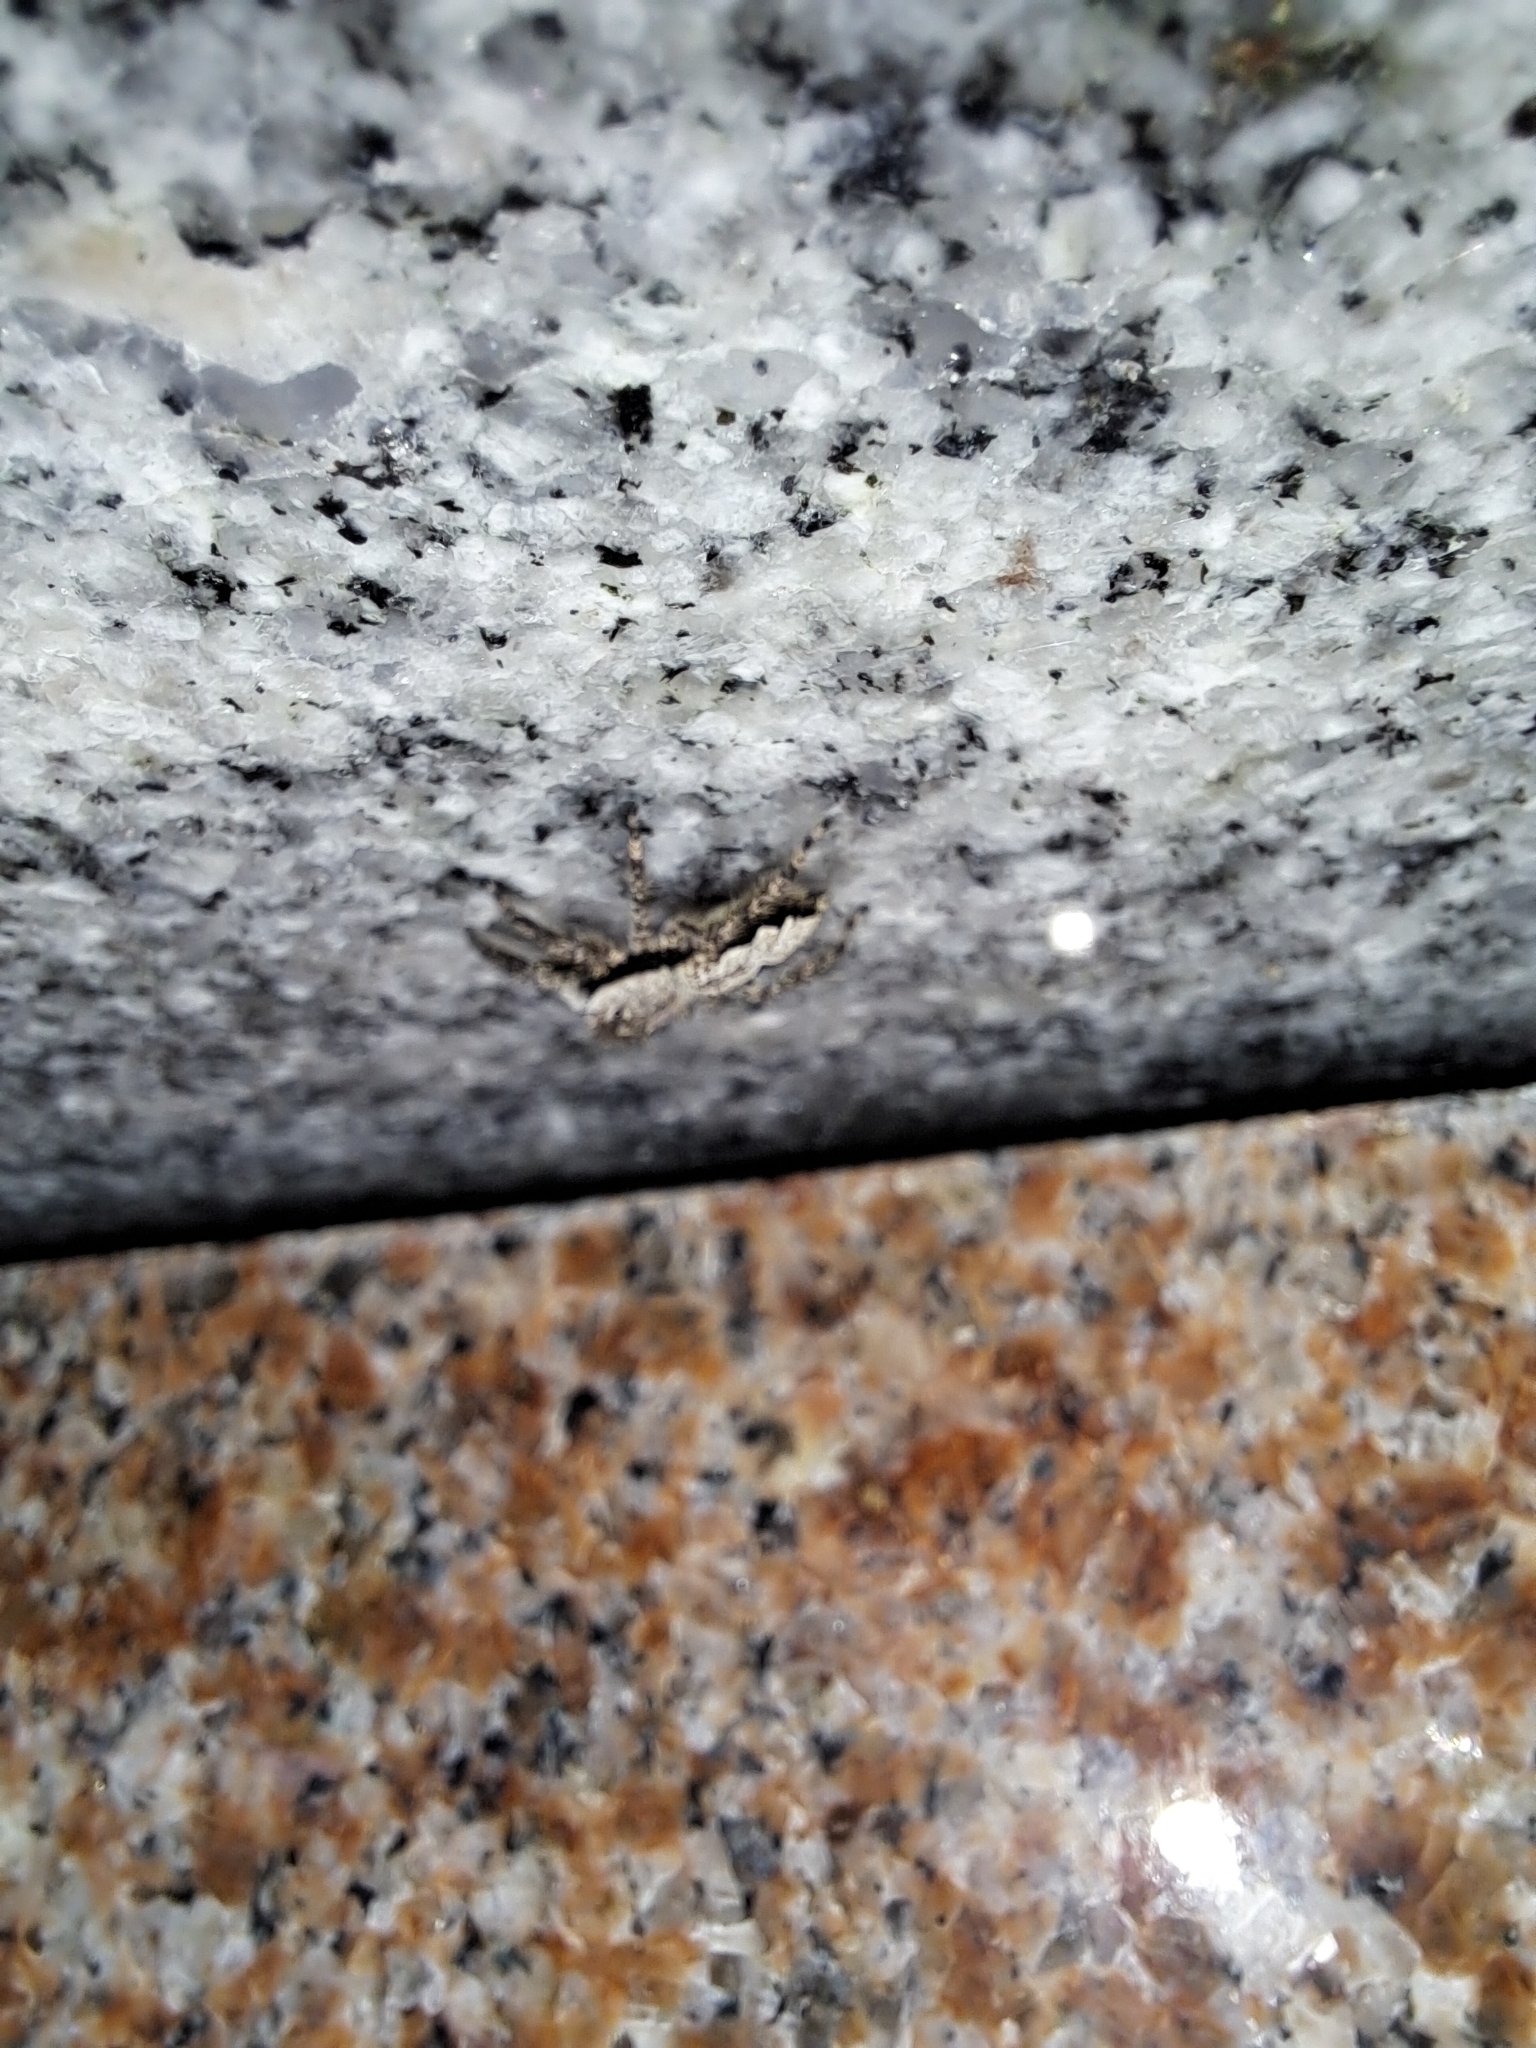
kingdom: Animalia
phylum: Arthropoda
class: Arachnida
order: Araneae
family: Salticidae
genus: Platycryptus
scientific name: Platycryptus undatus
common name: Tan jumping spider
